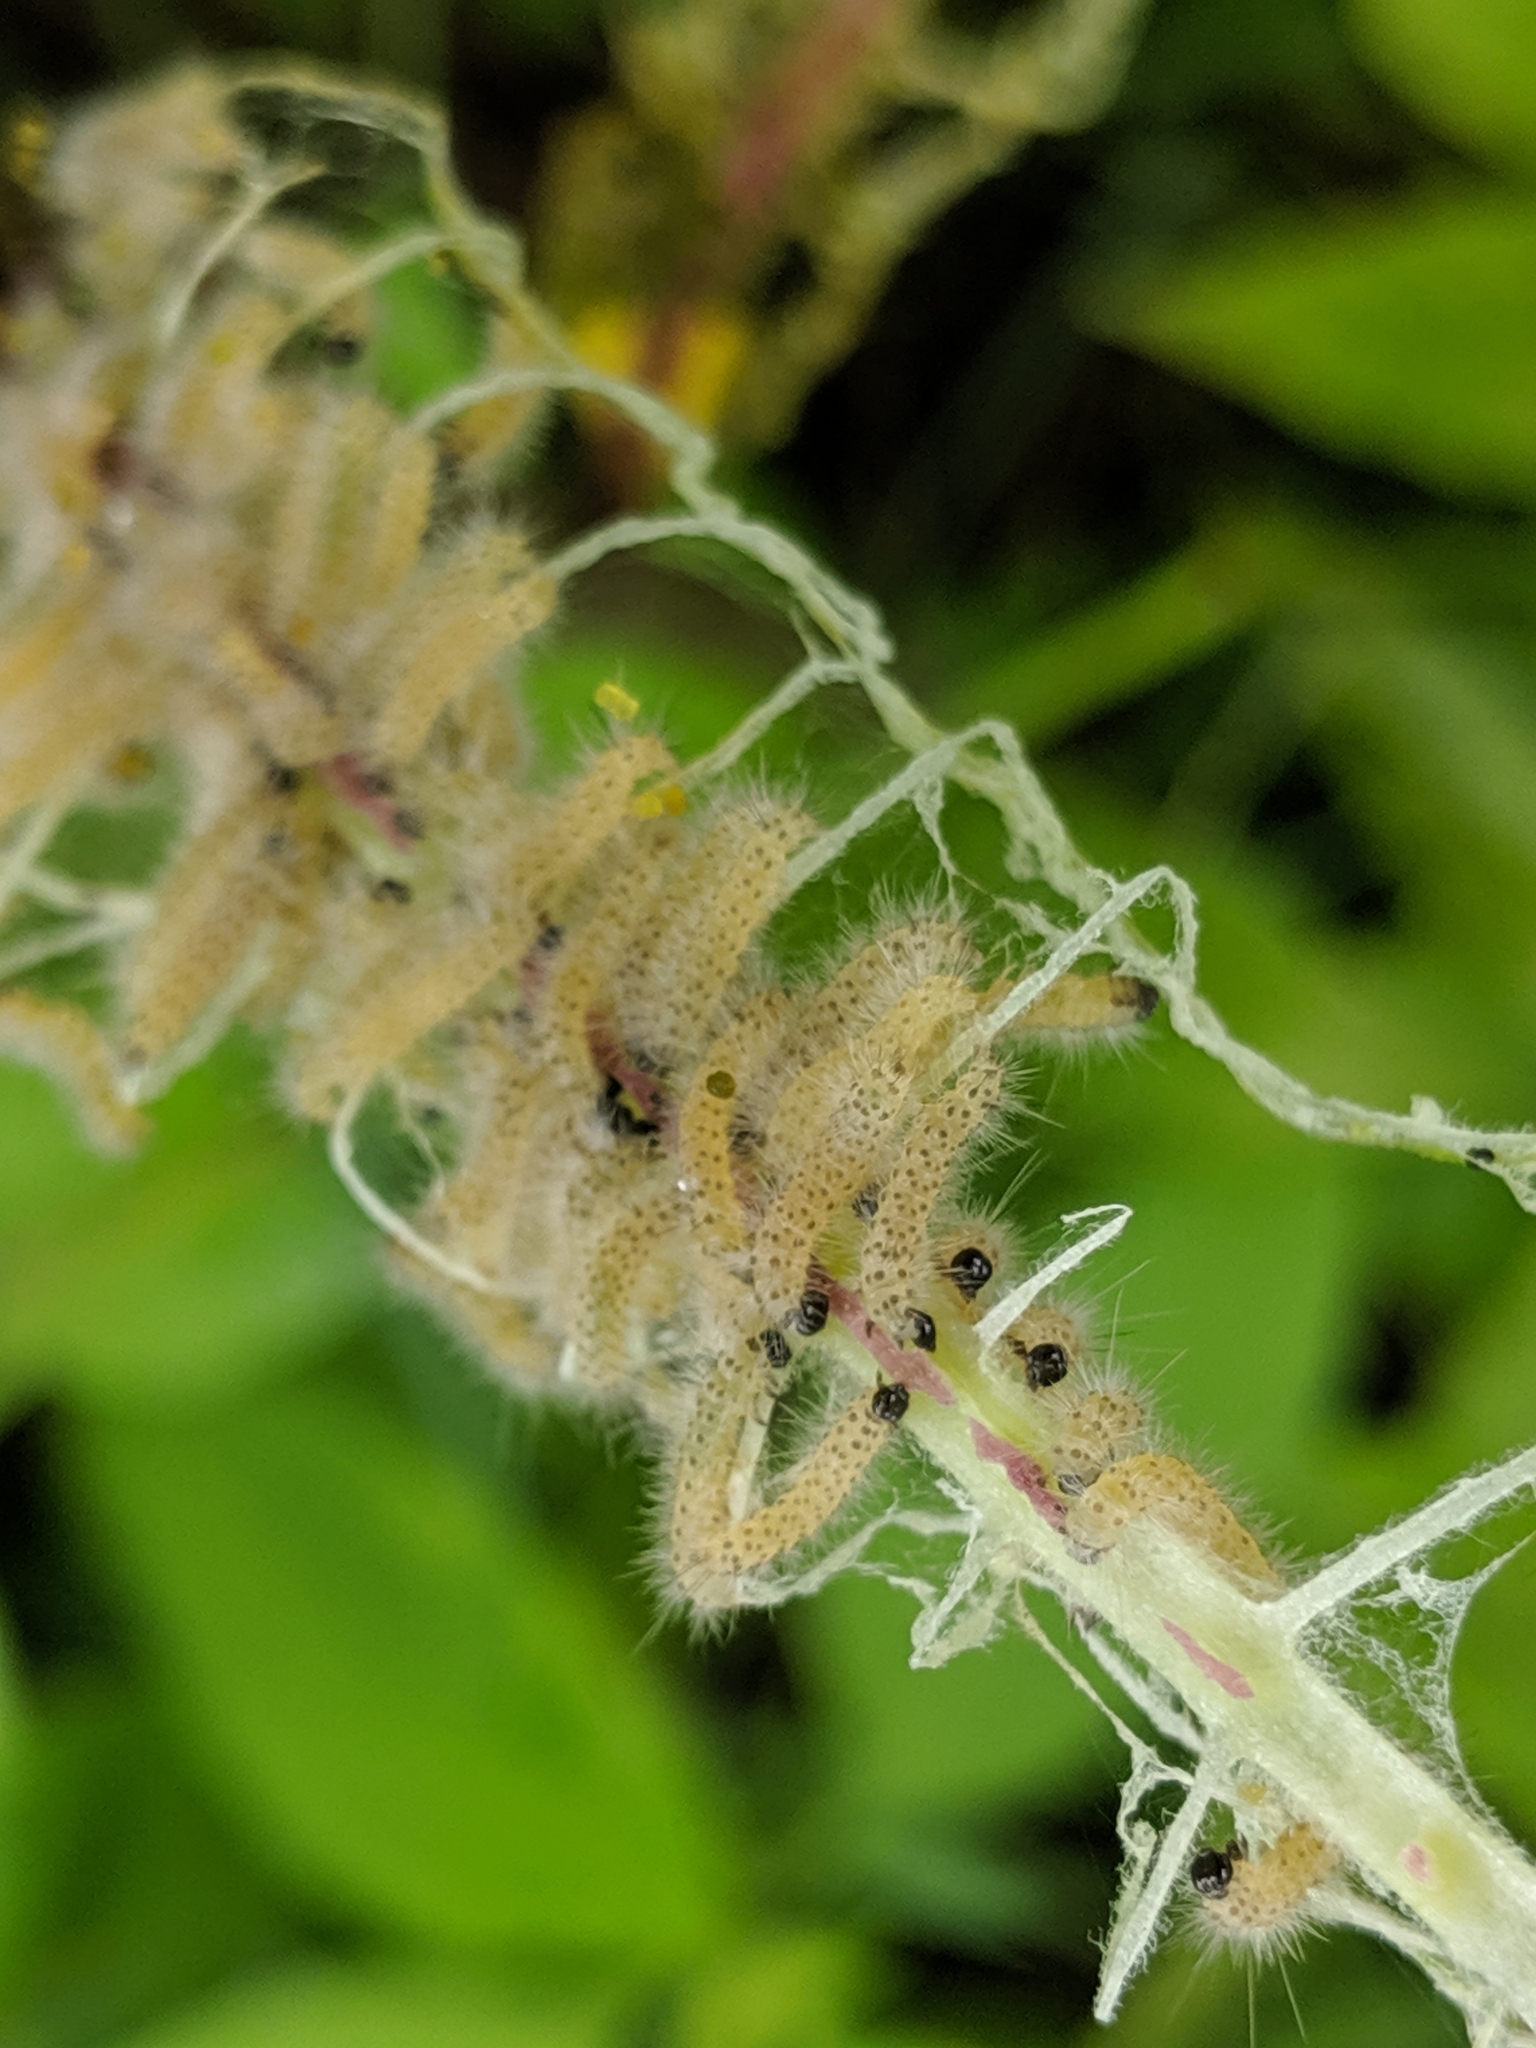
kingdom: Animalia
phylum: Arthropoda
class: Insecta
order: Lepidoptera
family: Erebidae
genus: Euchaetes
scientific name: Euchaetes egle
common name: Milkweed tussock moth
